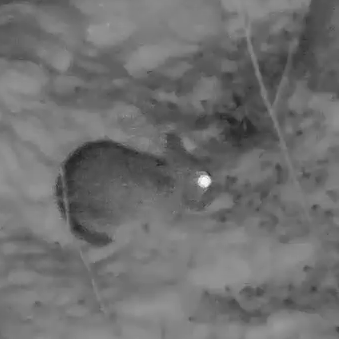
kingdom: Animalia
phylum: Chordata
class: Mammalia
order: Lagomorpha
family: Leporidae
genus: Sylvilagus
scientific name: Sylvilagus floridanus
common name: Eastern cottontail
